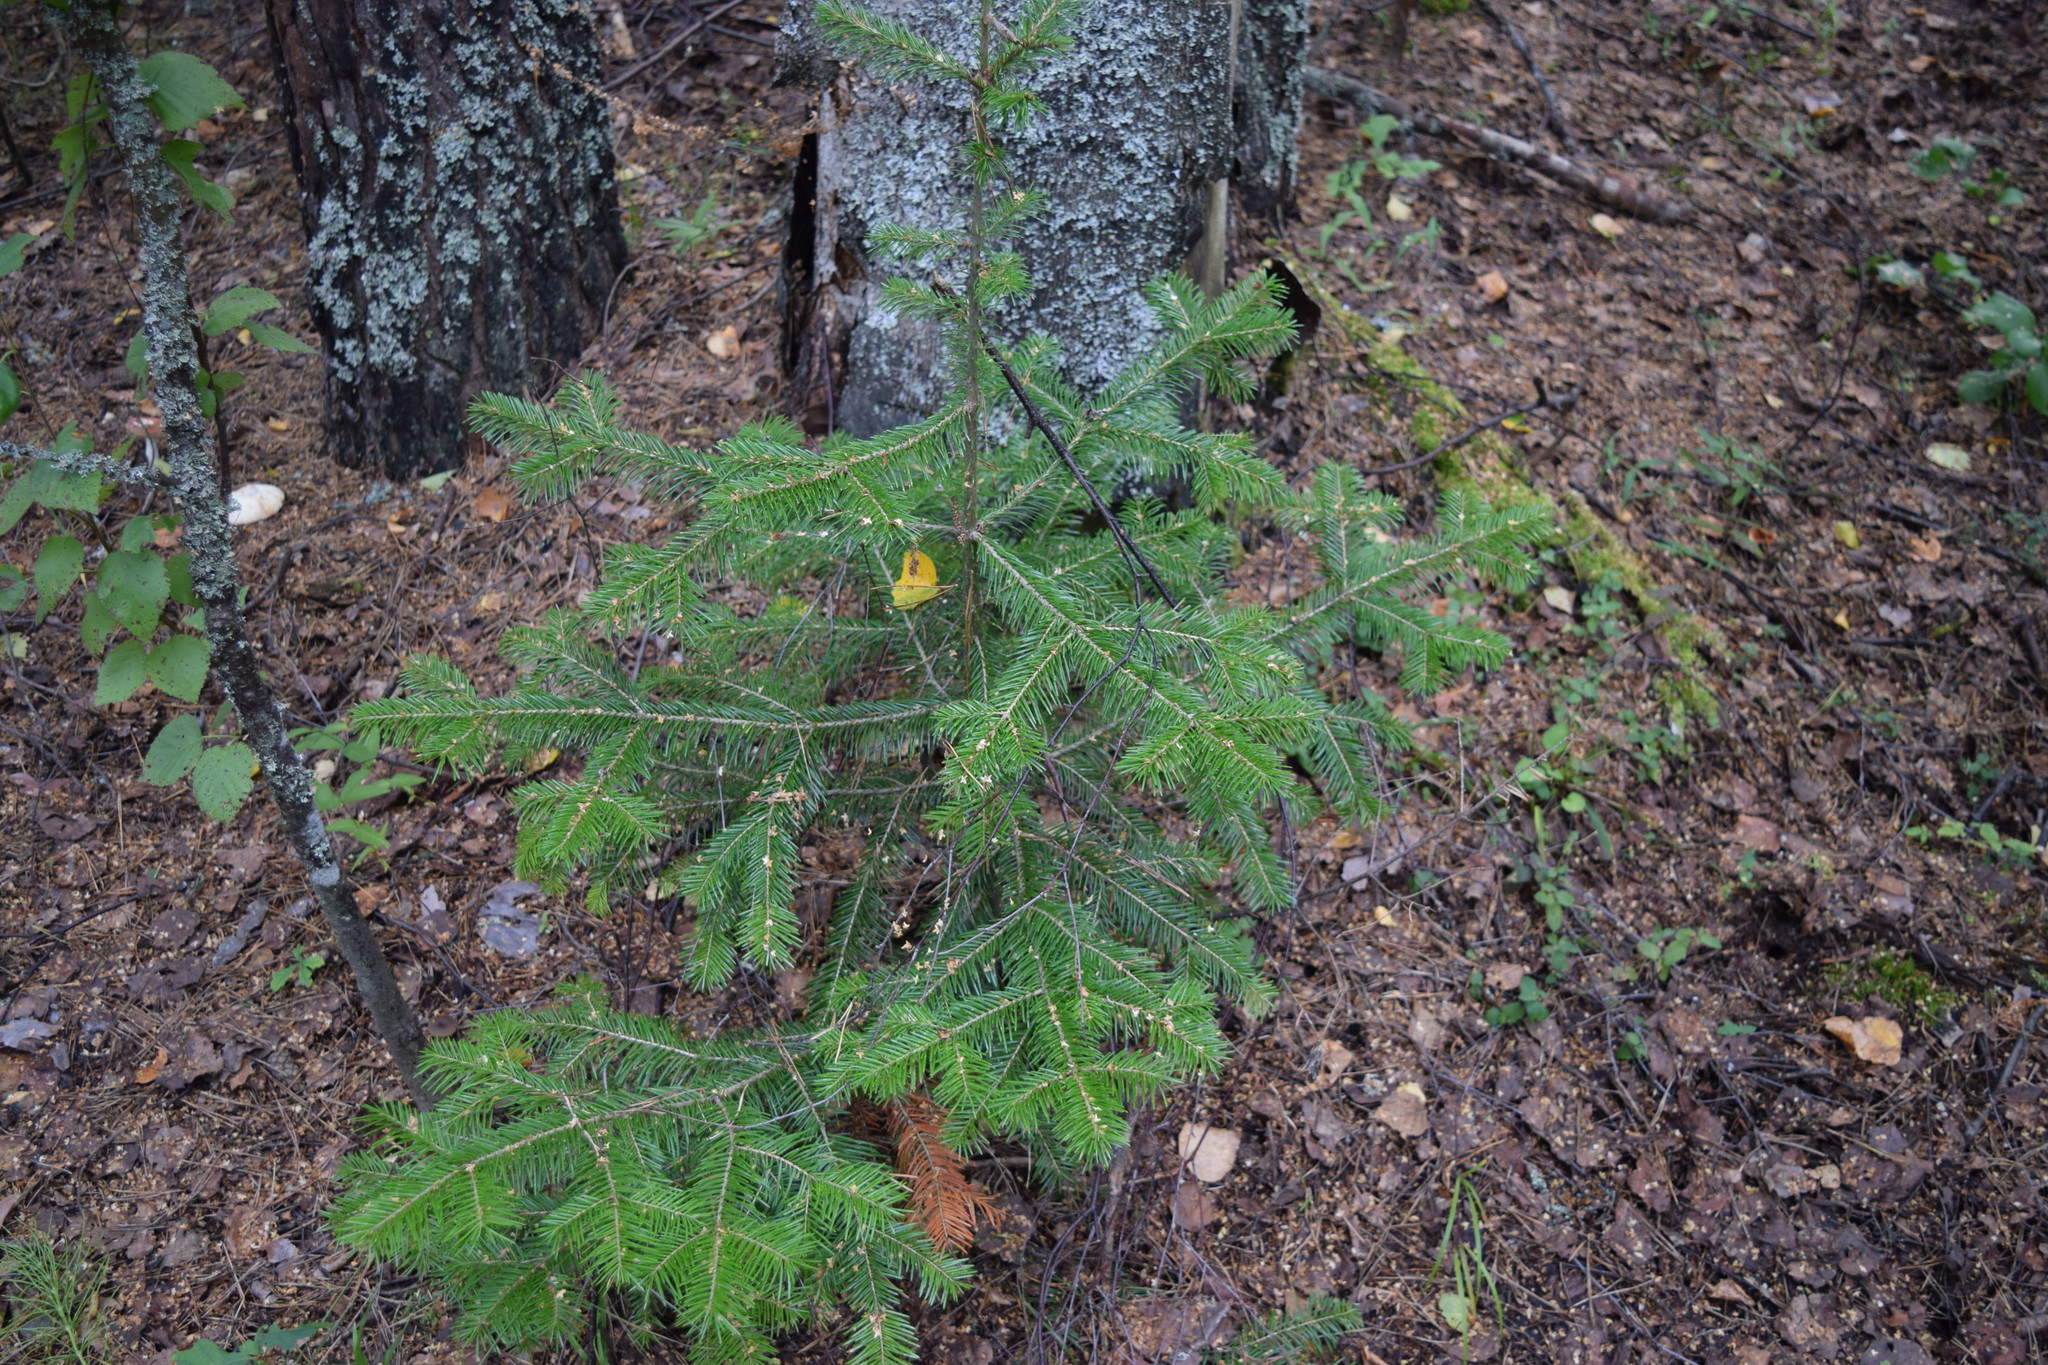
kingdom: Plantae
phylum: Tracheophyta
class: Pinopsida
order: Pinales
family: Pinaceae
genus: Abies
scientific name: Abies sibirica
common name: Siberian fir
